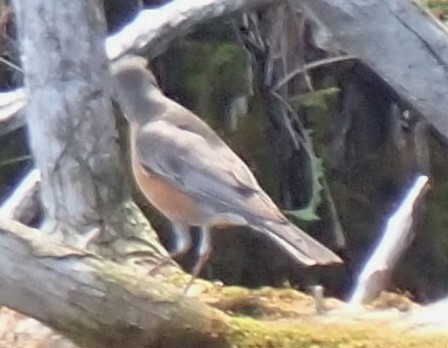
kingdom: Animalia
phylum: Chordata
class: Aves
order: Passeriformes
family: Turdidae
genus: Turdus
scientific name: Turdus migratorius
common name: American robin
